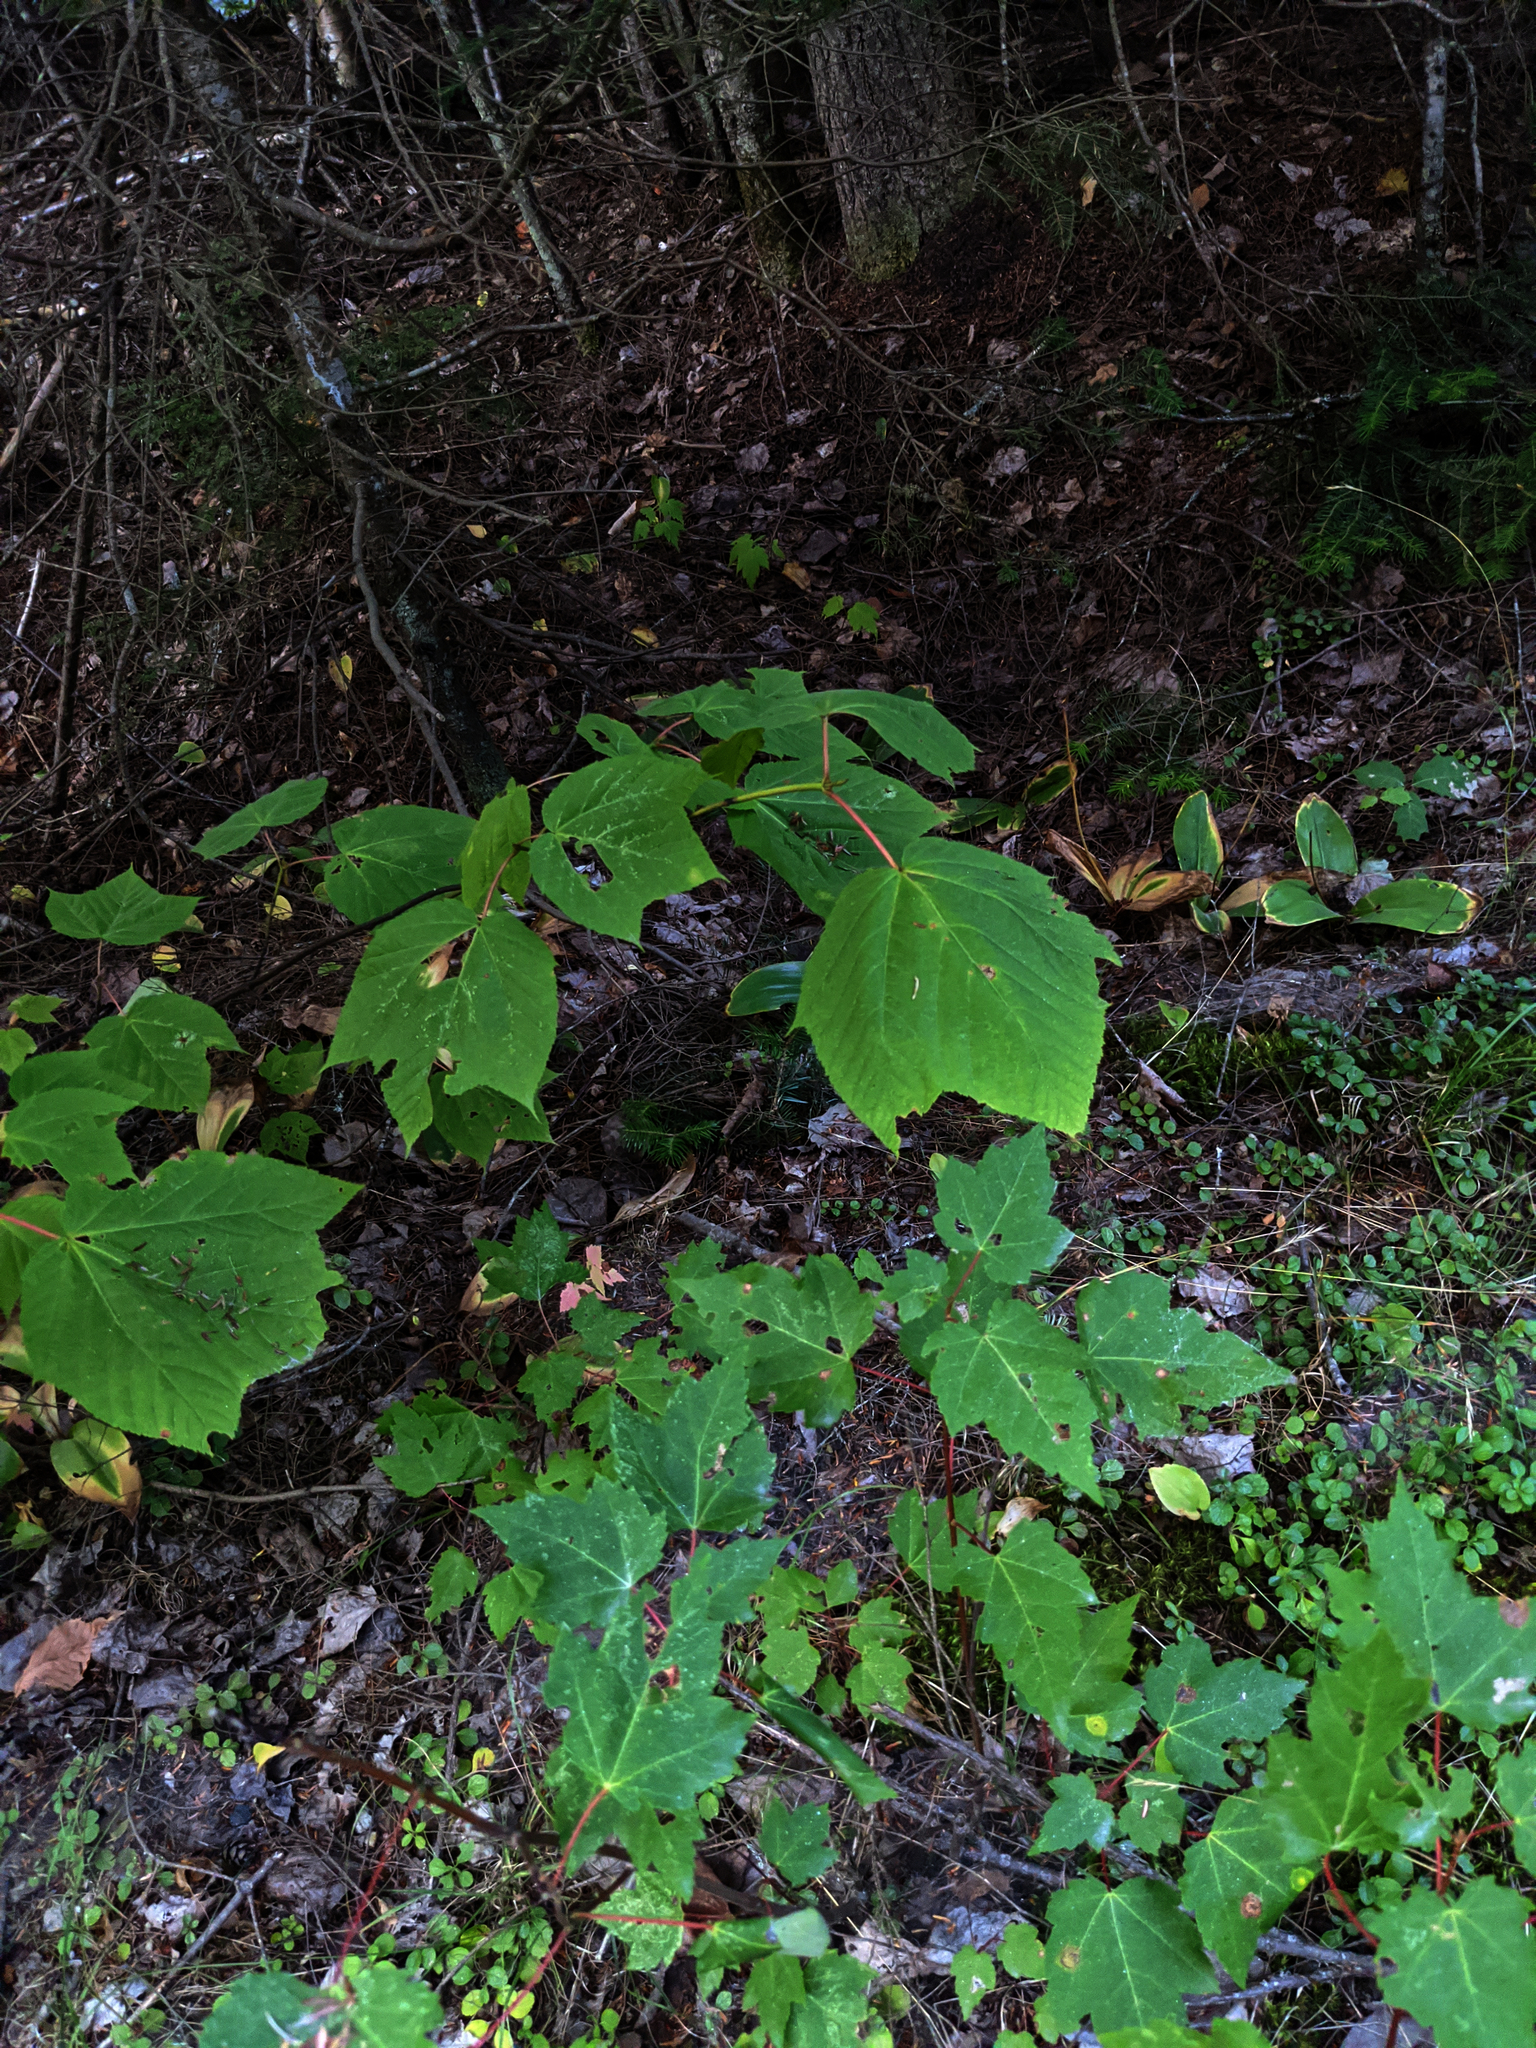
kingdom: Plantae
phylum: Tracheophyta
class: Magnoliopsida
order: Sapindales
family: Sapindaceae
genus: Acer
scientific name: Acer pensylvanicum
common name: Moosewood
